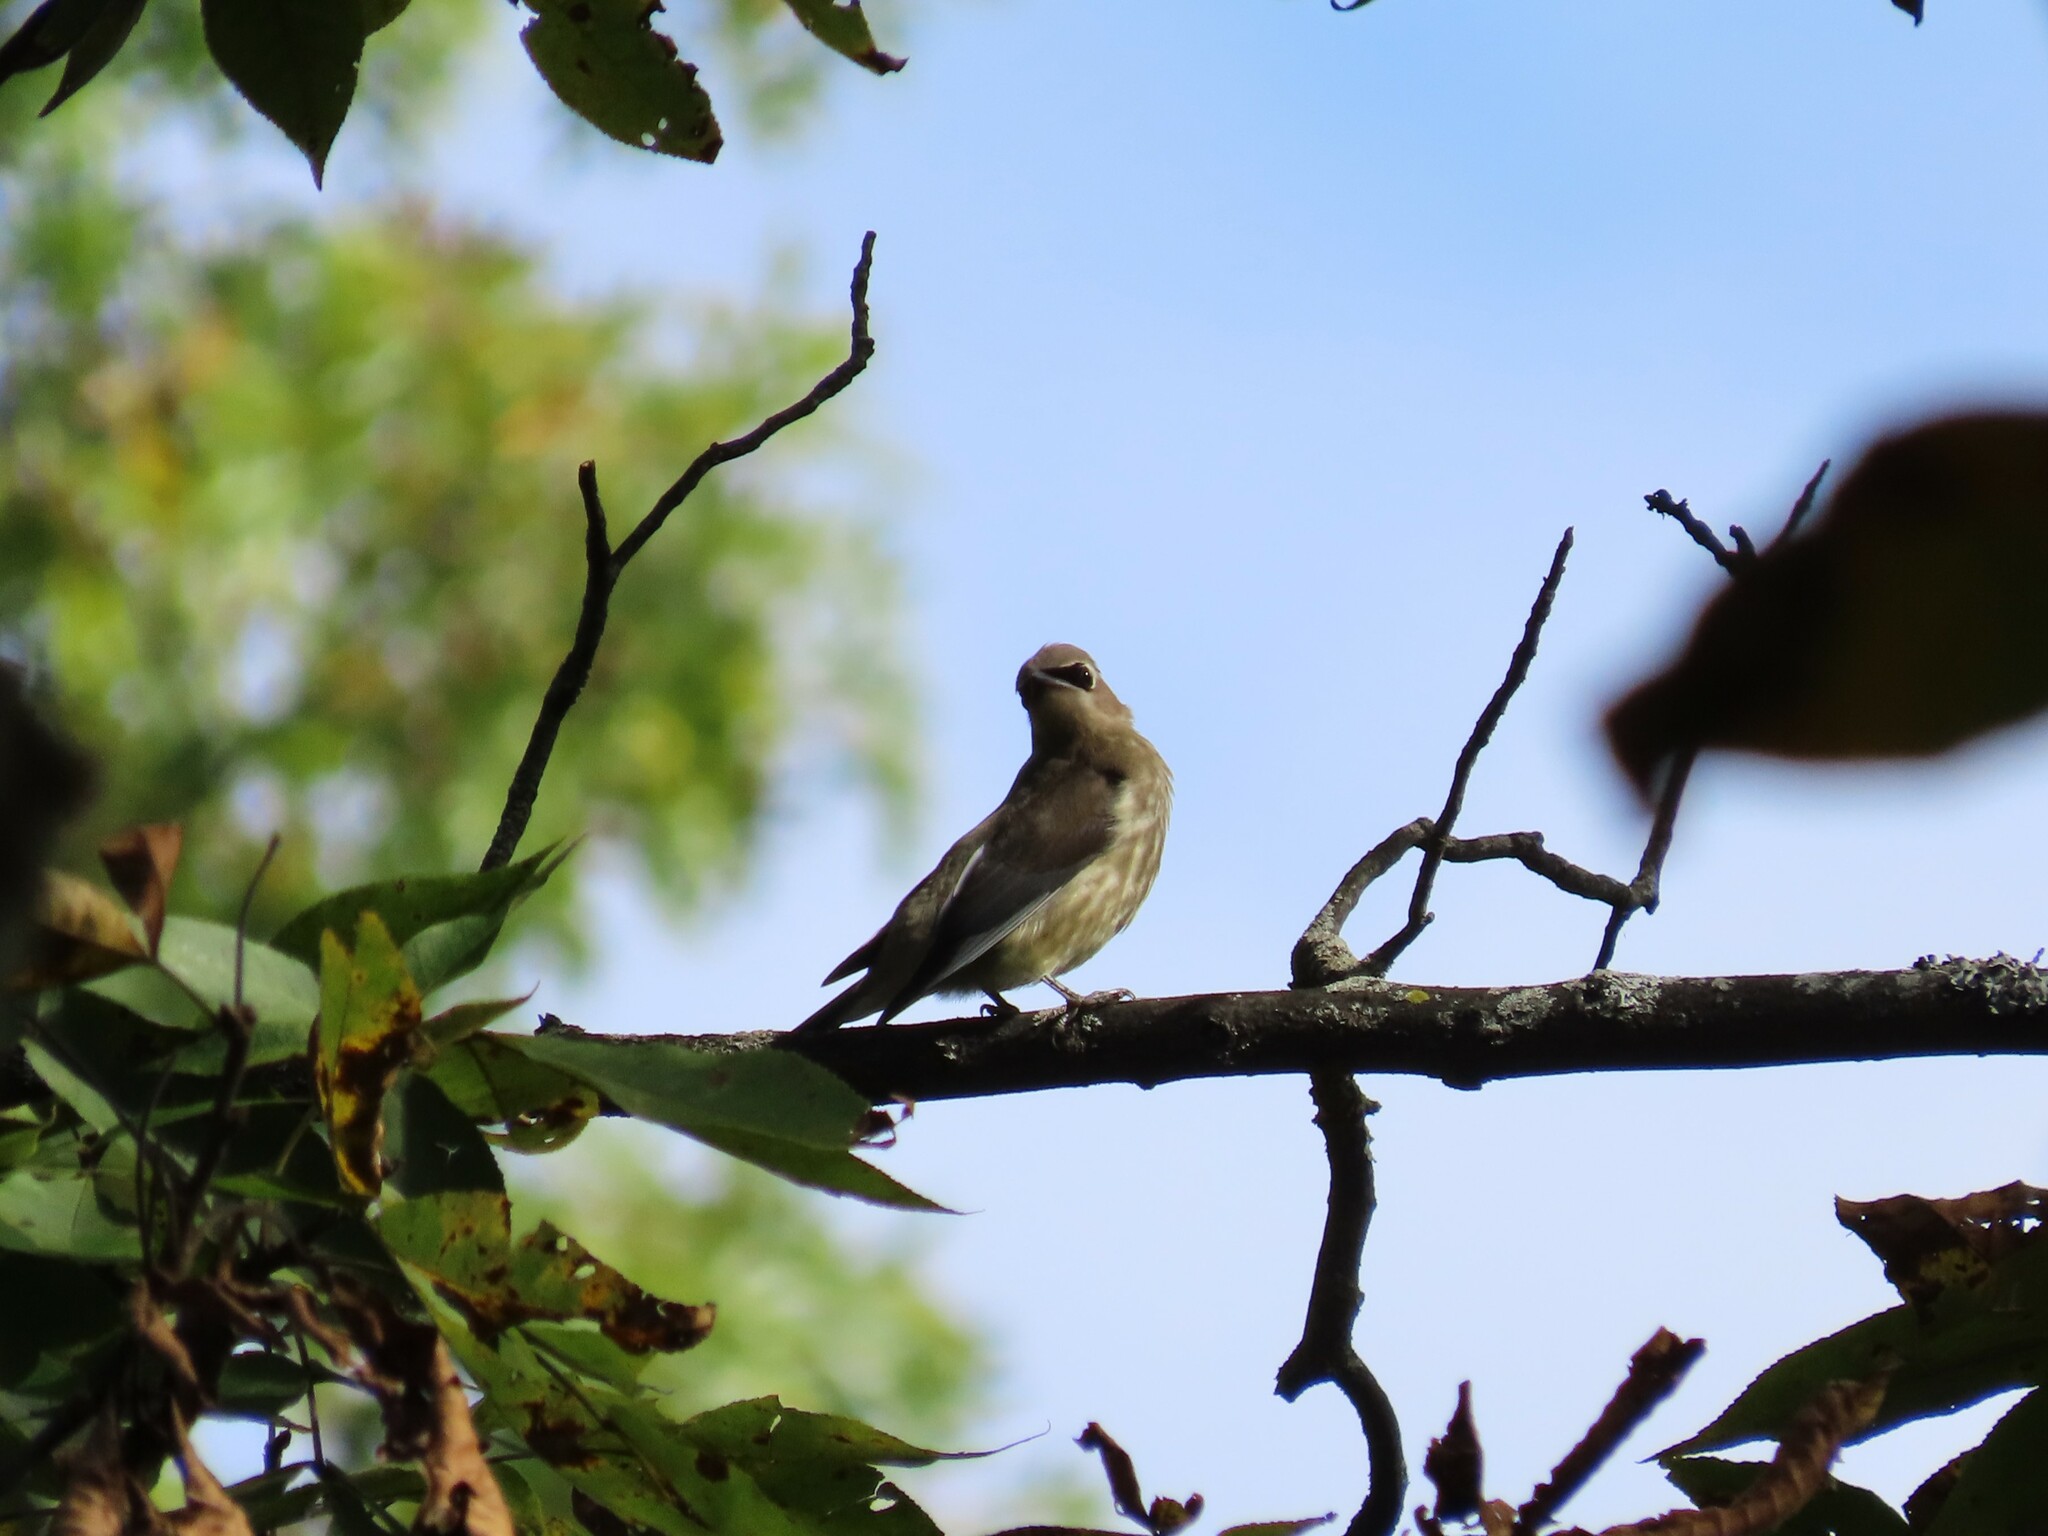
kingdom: Animalia
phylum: Chordata
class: Aves
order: Passeriformes
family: Bombycillidae
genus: Bombycilla
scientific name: Bombycilla cedrorum
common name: Cedar waxwing
